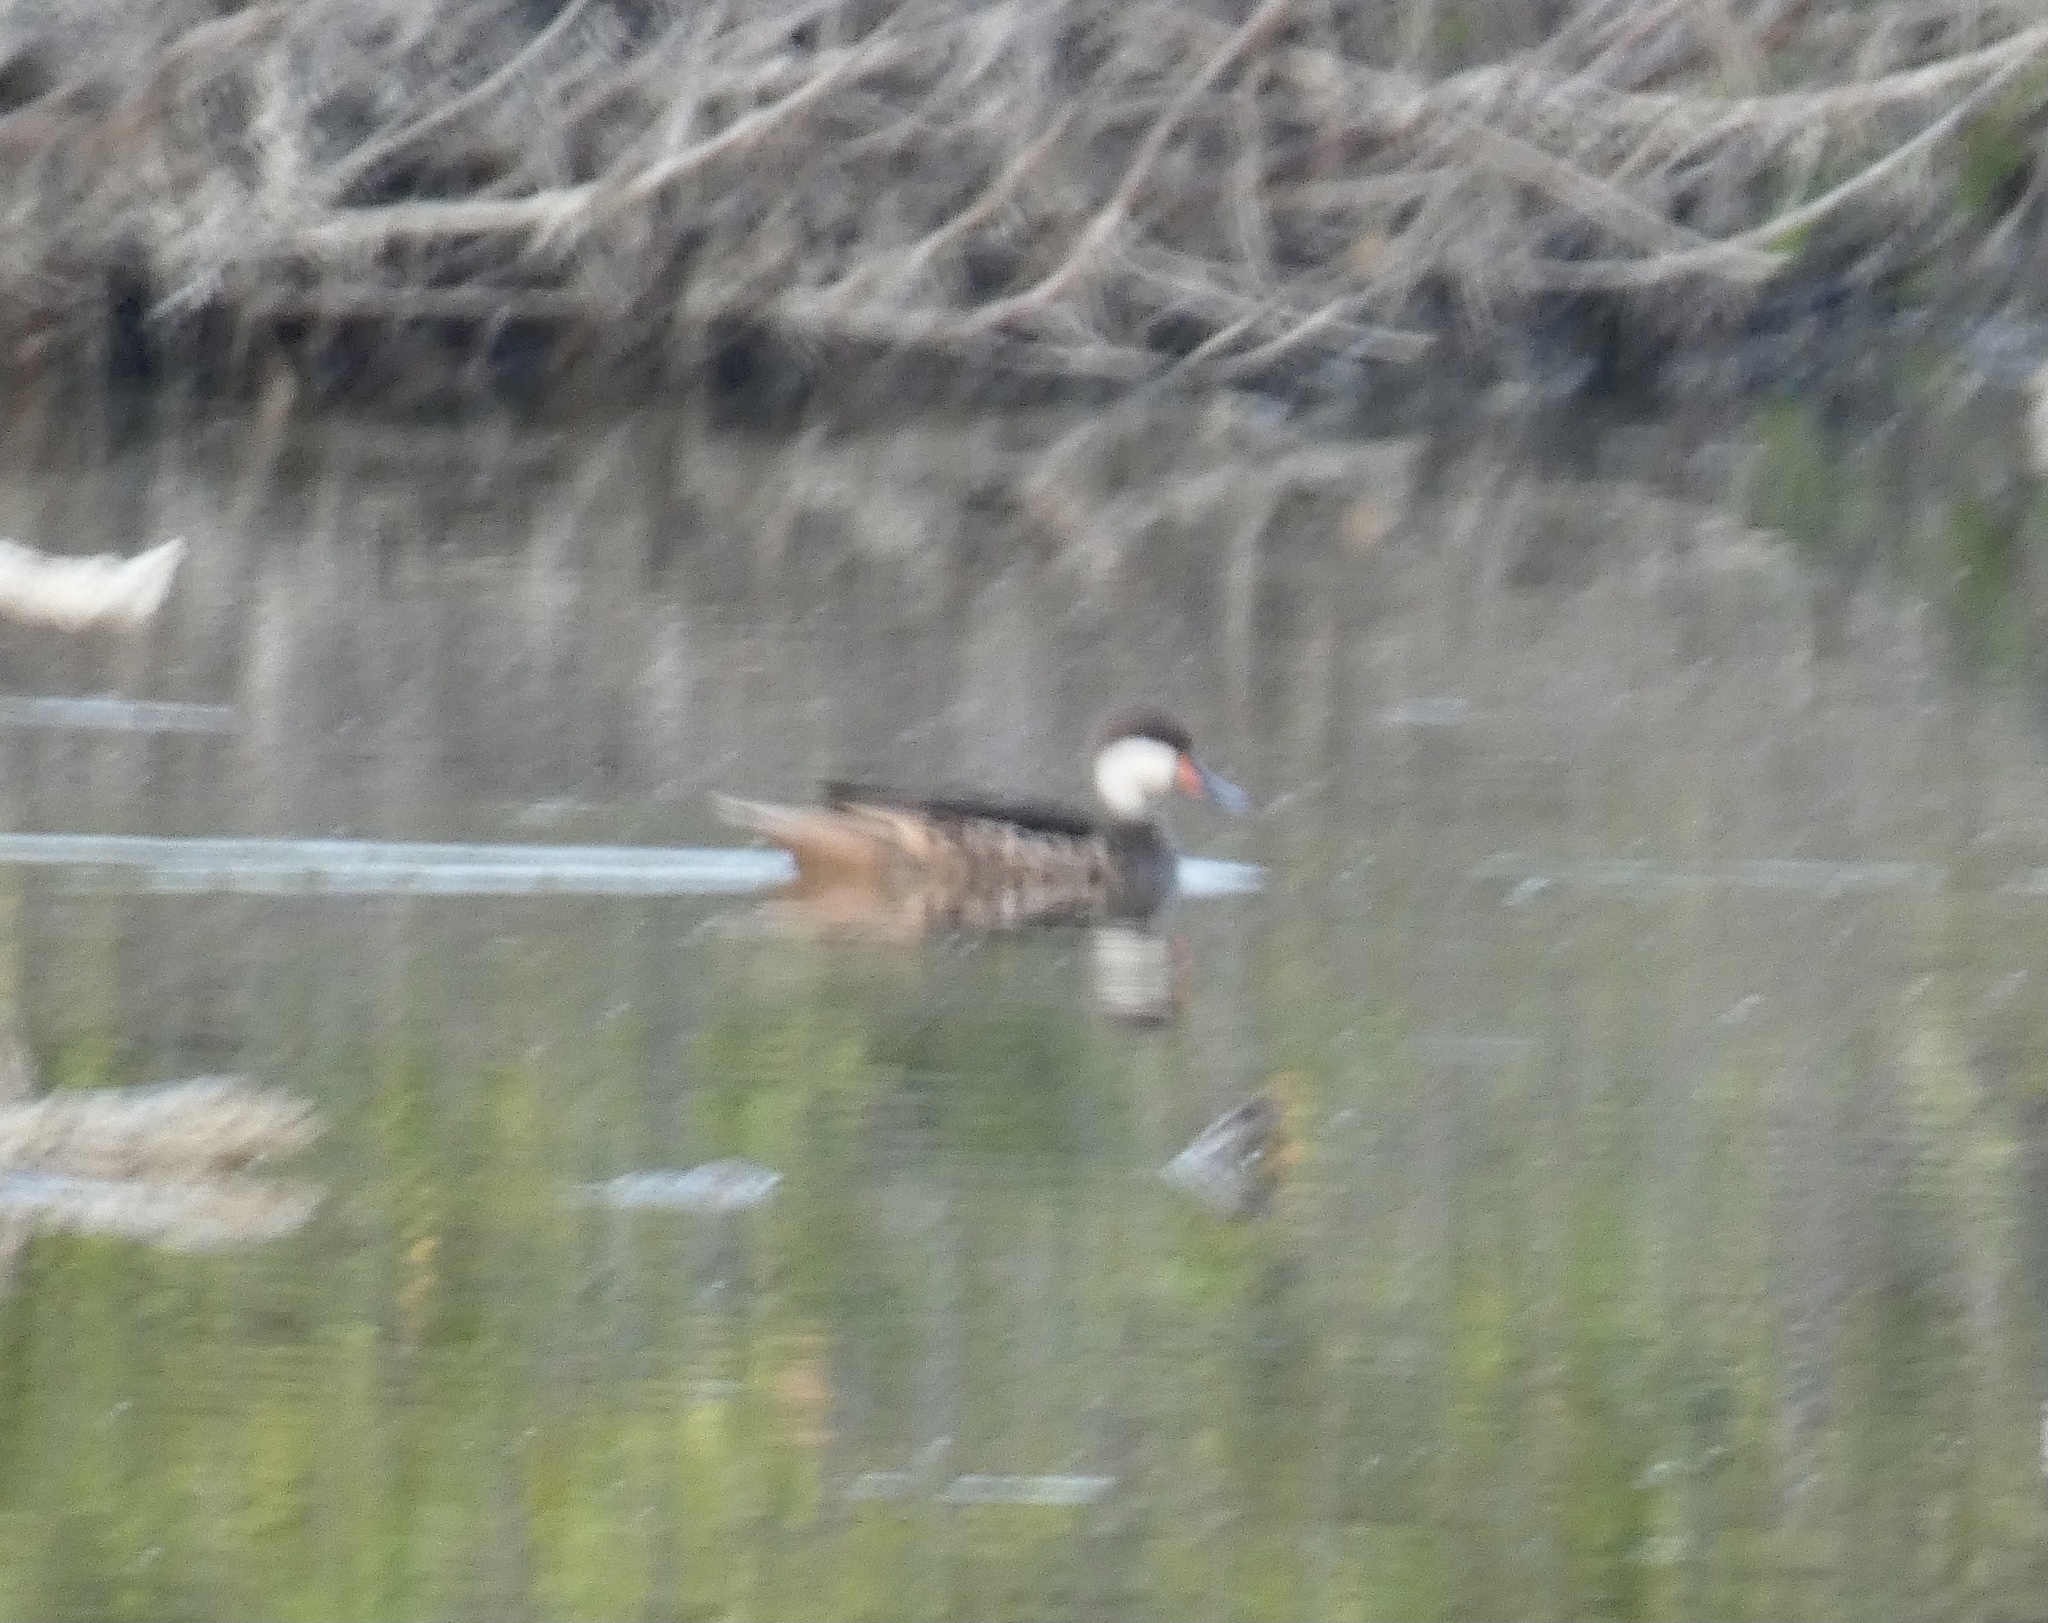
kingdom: Animalia
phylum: Chordata
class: Aves
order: Anseriformes
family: Anatidae
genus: Anas
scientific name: Anas bahamensis
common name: White-cheeked pintail
